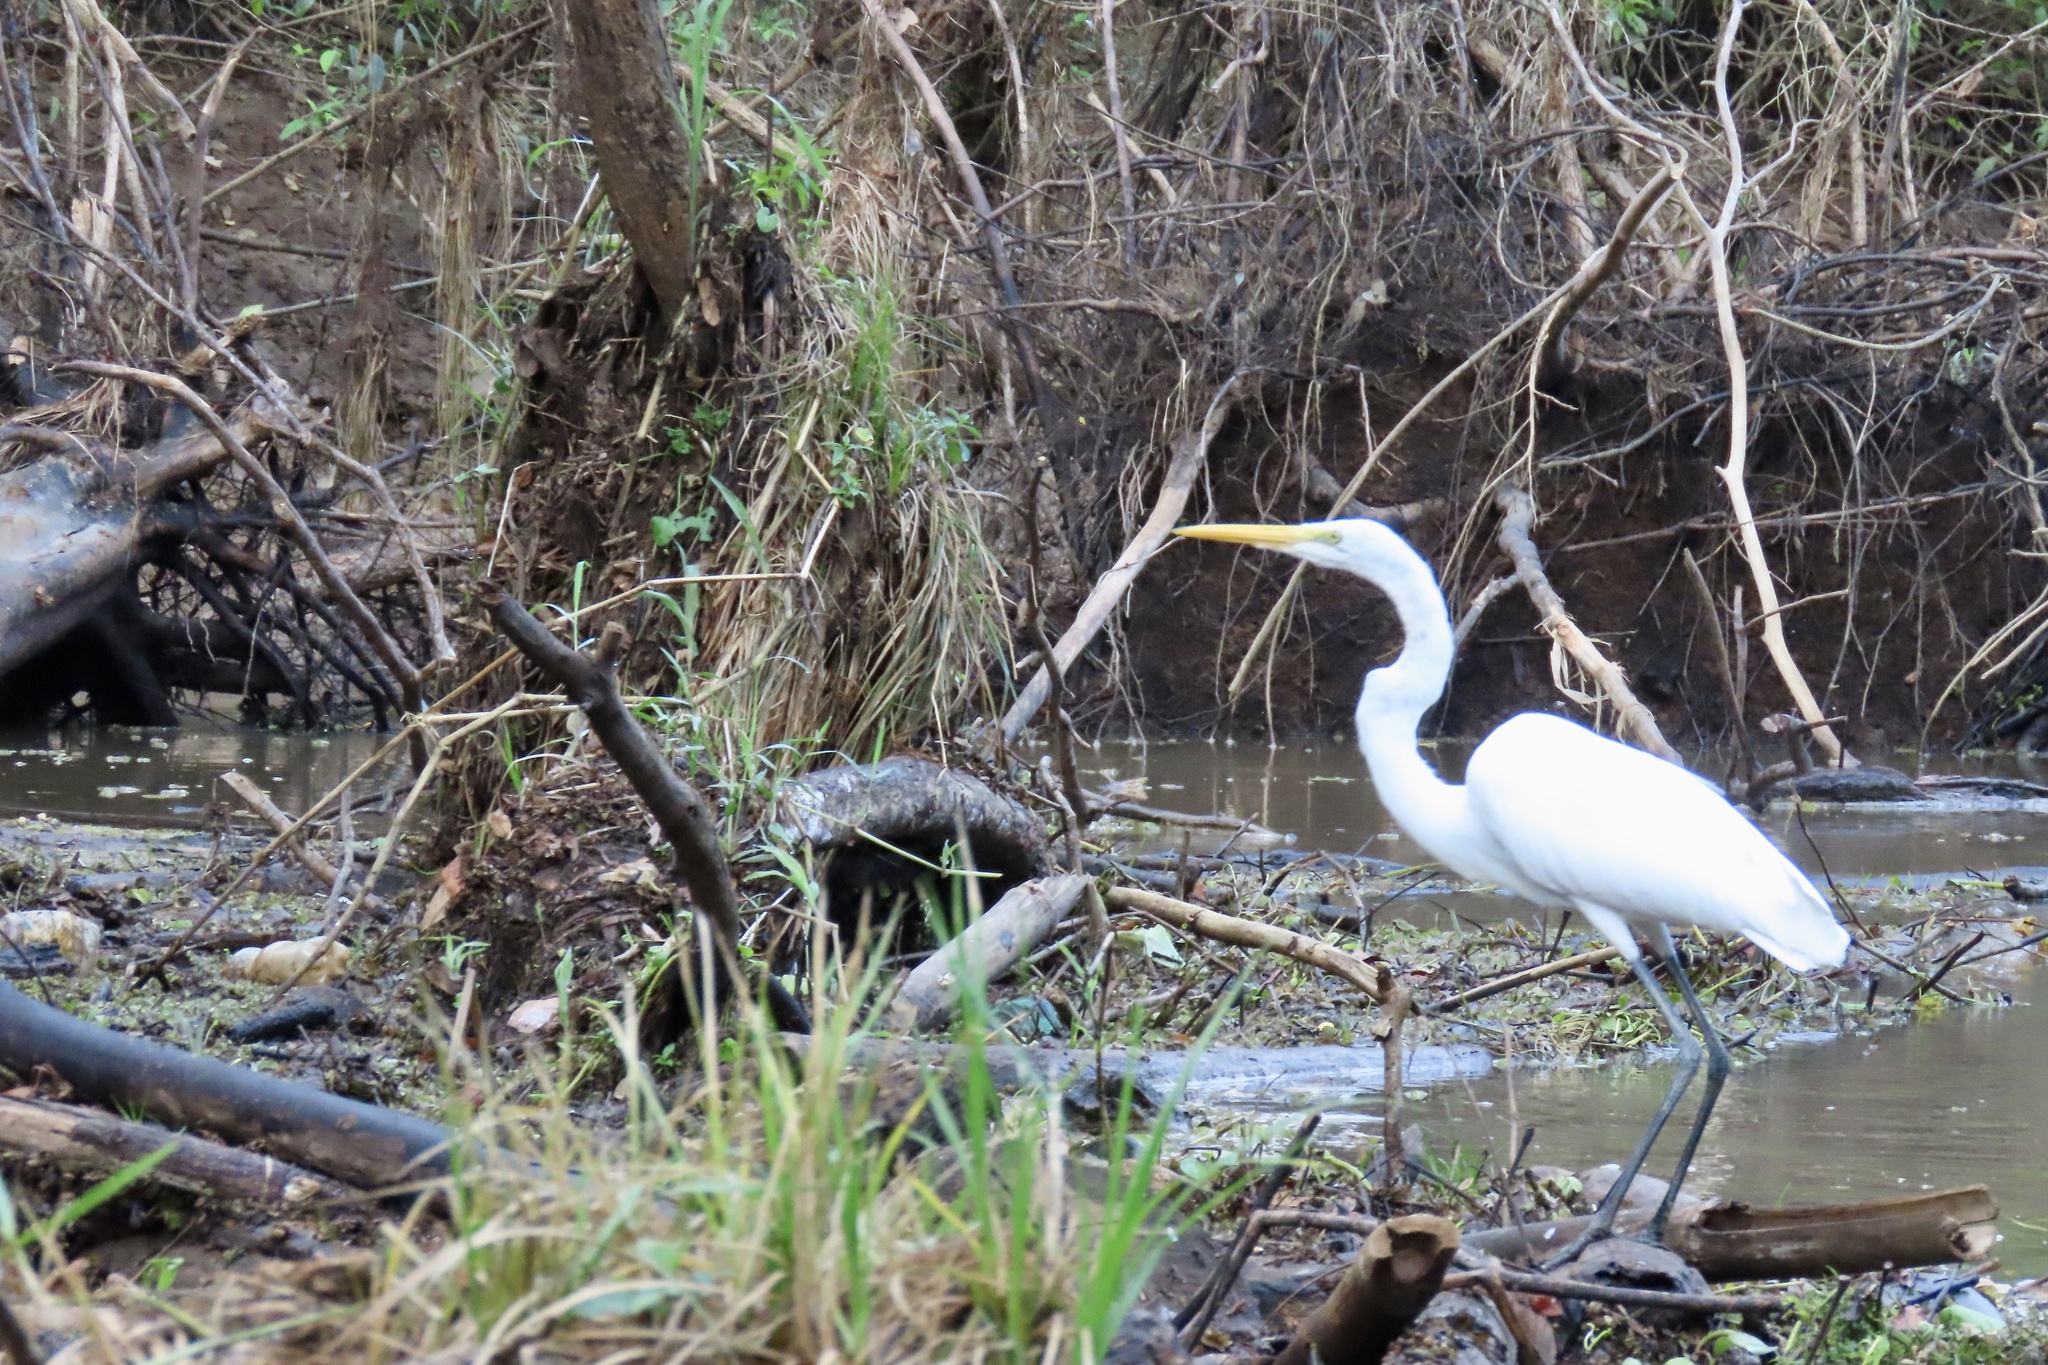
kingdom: Animalia
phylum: Chordata
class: Aves
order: Pelecaniformes
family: Ardeidae
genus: Ardea
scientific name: Ardea alba
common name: Great egret
